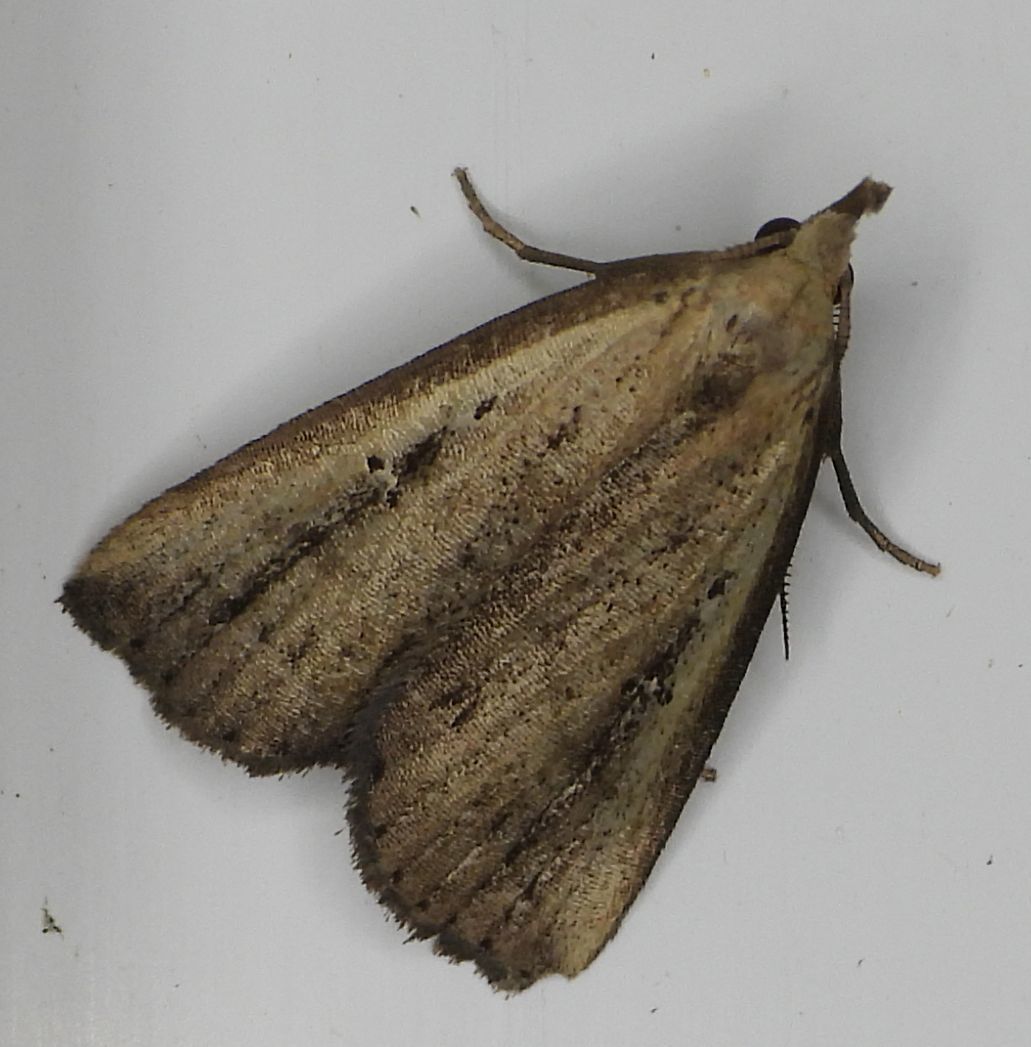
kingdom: Animalia
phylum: Arthropoda
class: Insecta
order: Lepidoptera
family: Erebidae
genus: Macrochilo
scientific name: Macrochilo orciferalis
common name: Bronzy owlet
